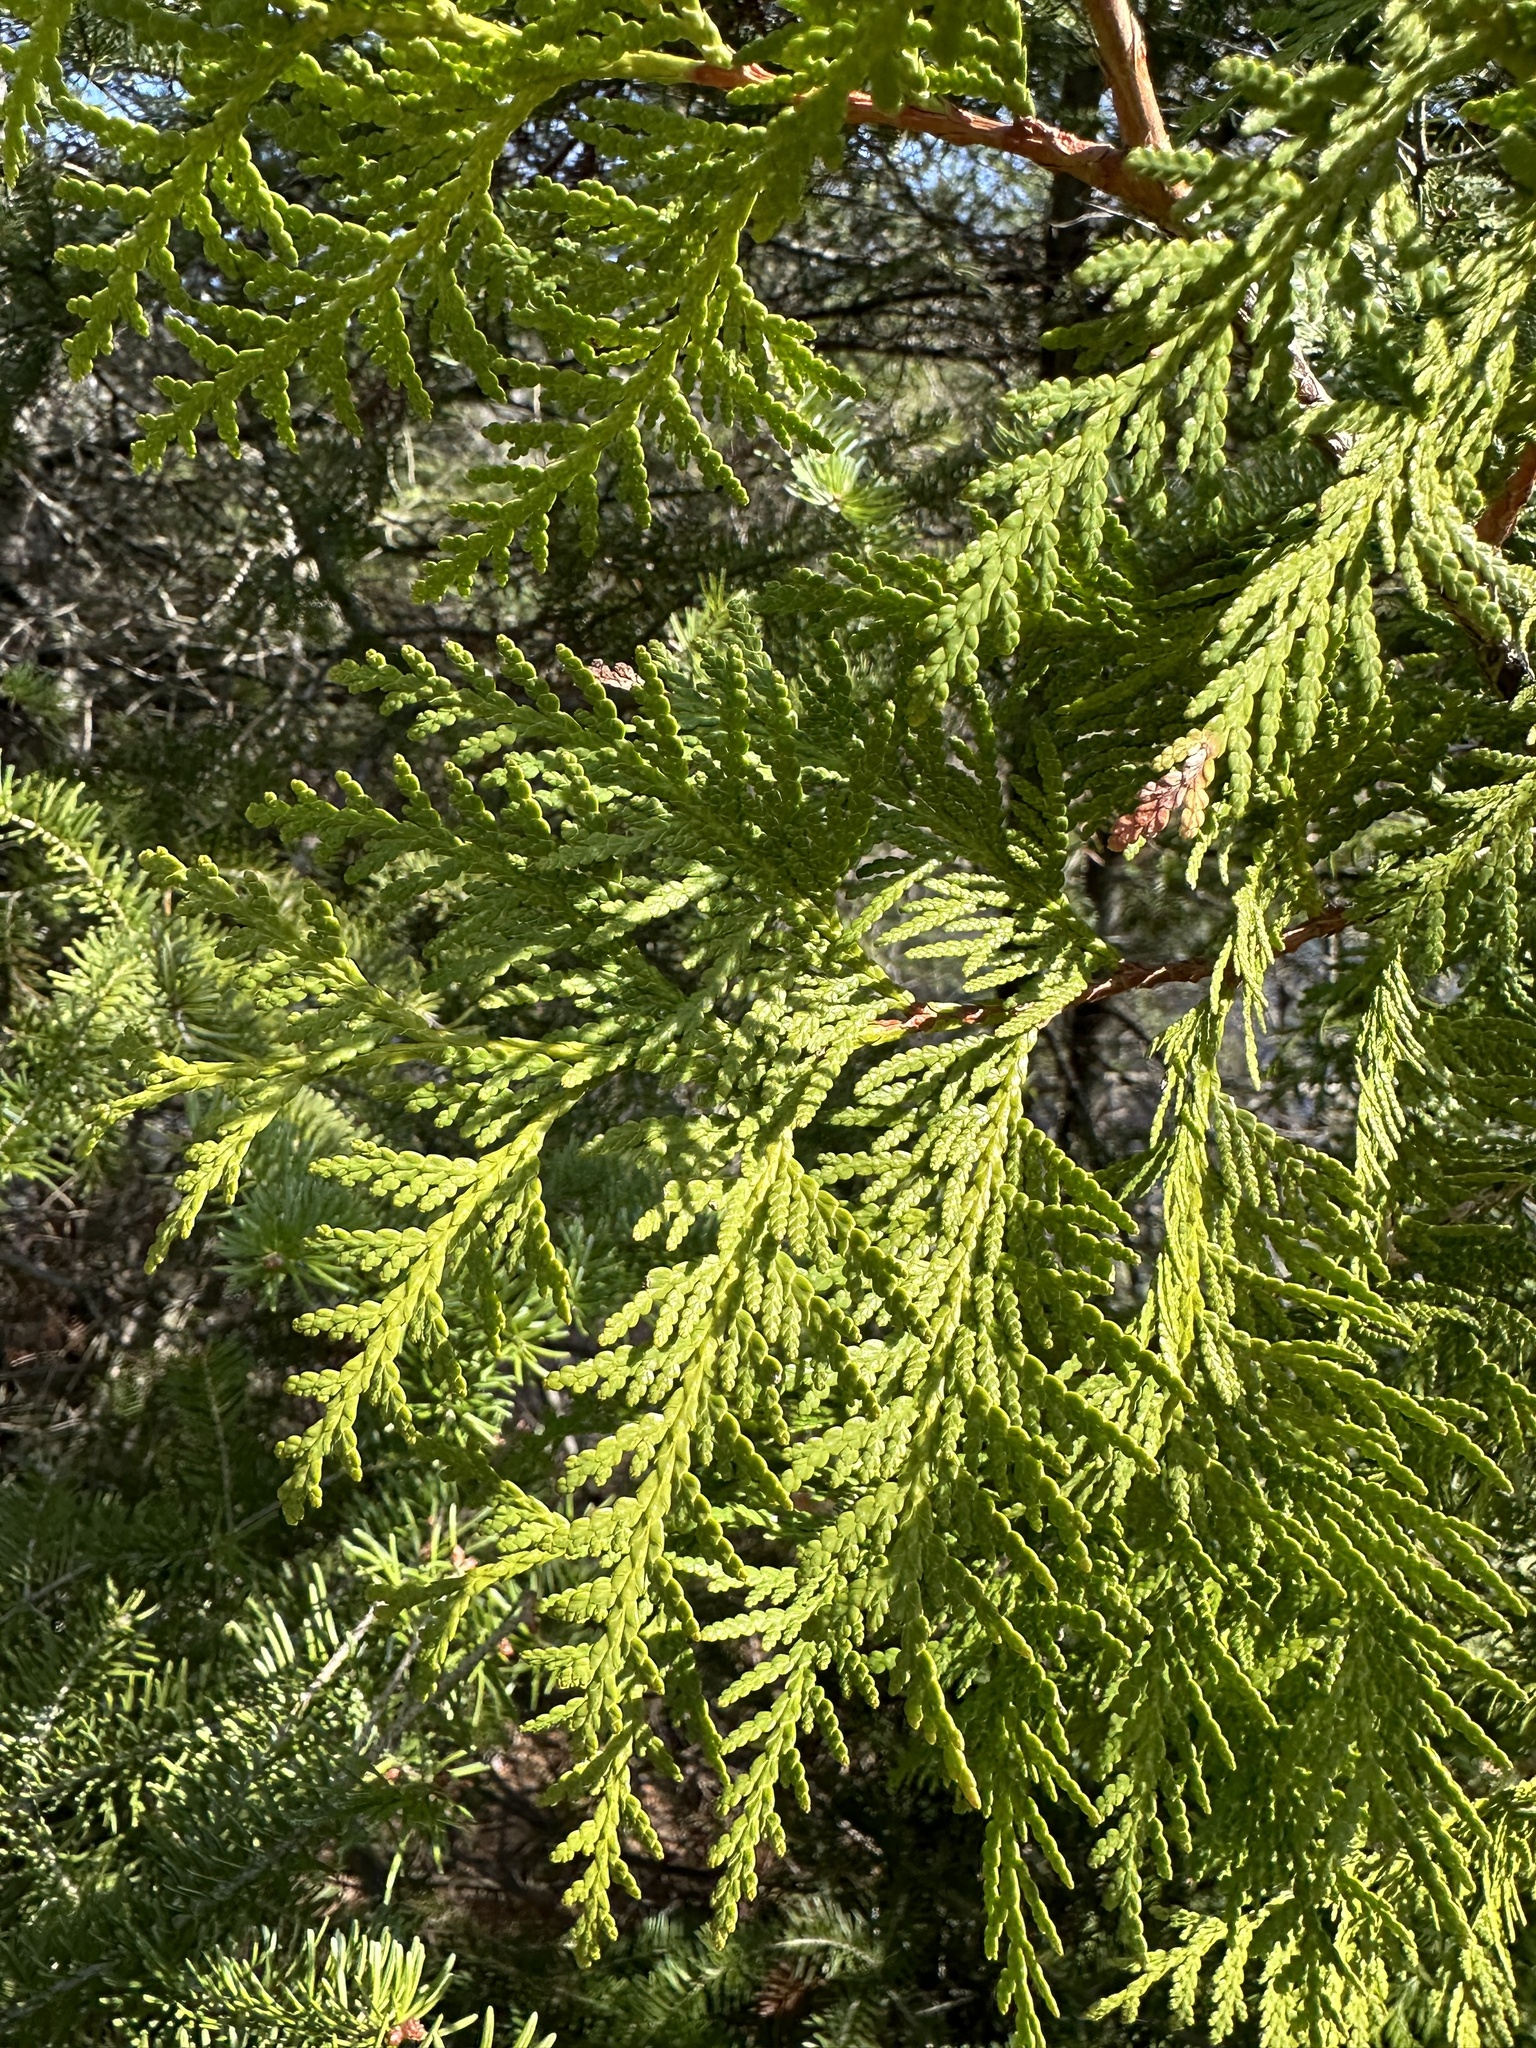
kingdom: Plantae
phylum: Tracheophyta
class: Pinopsida
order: Pinales
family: Cupressaceae
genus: Thuja
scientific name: Thuja occidentalis
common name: Northern white-cedar
